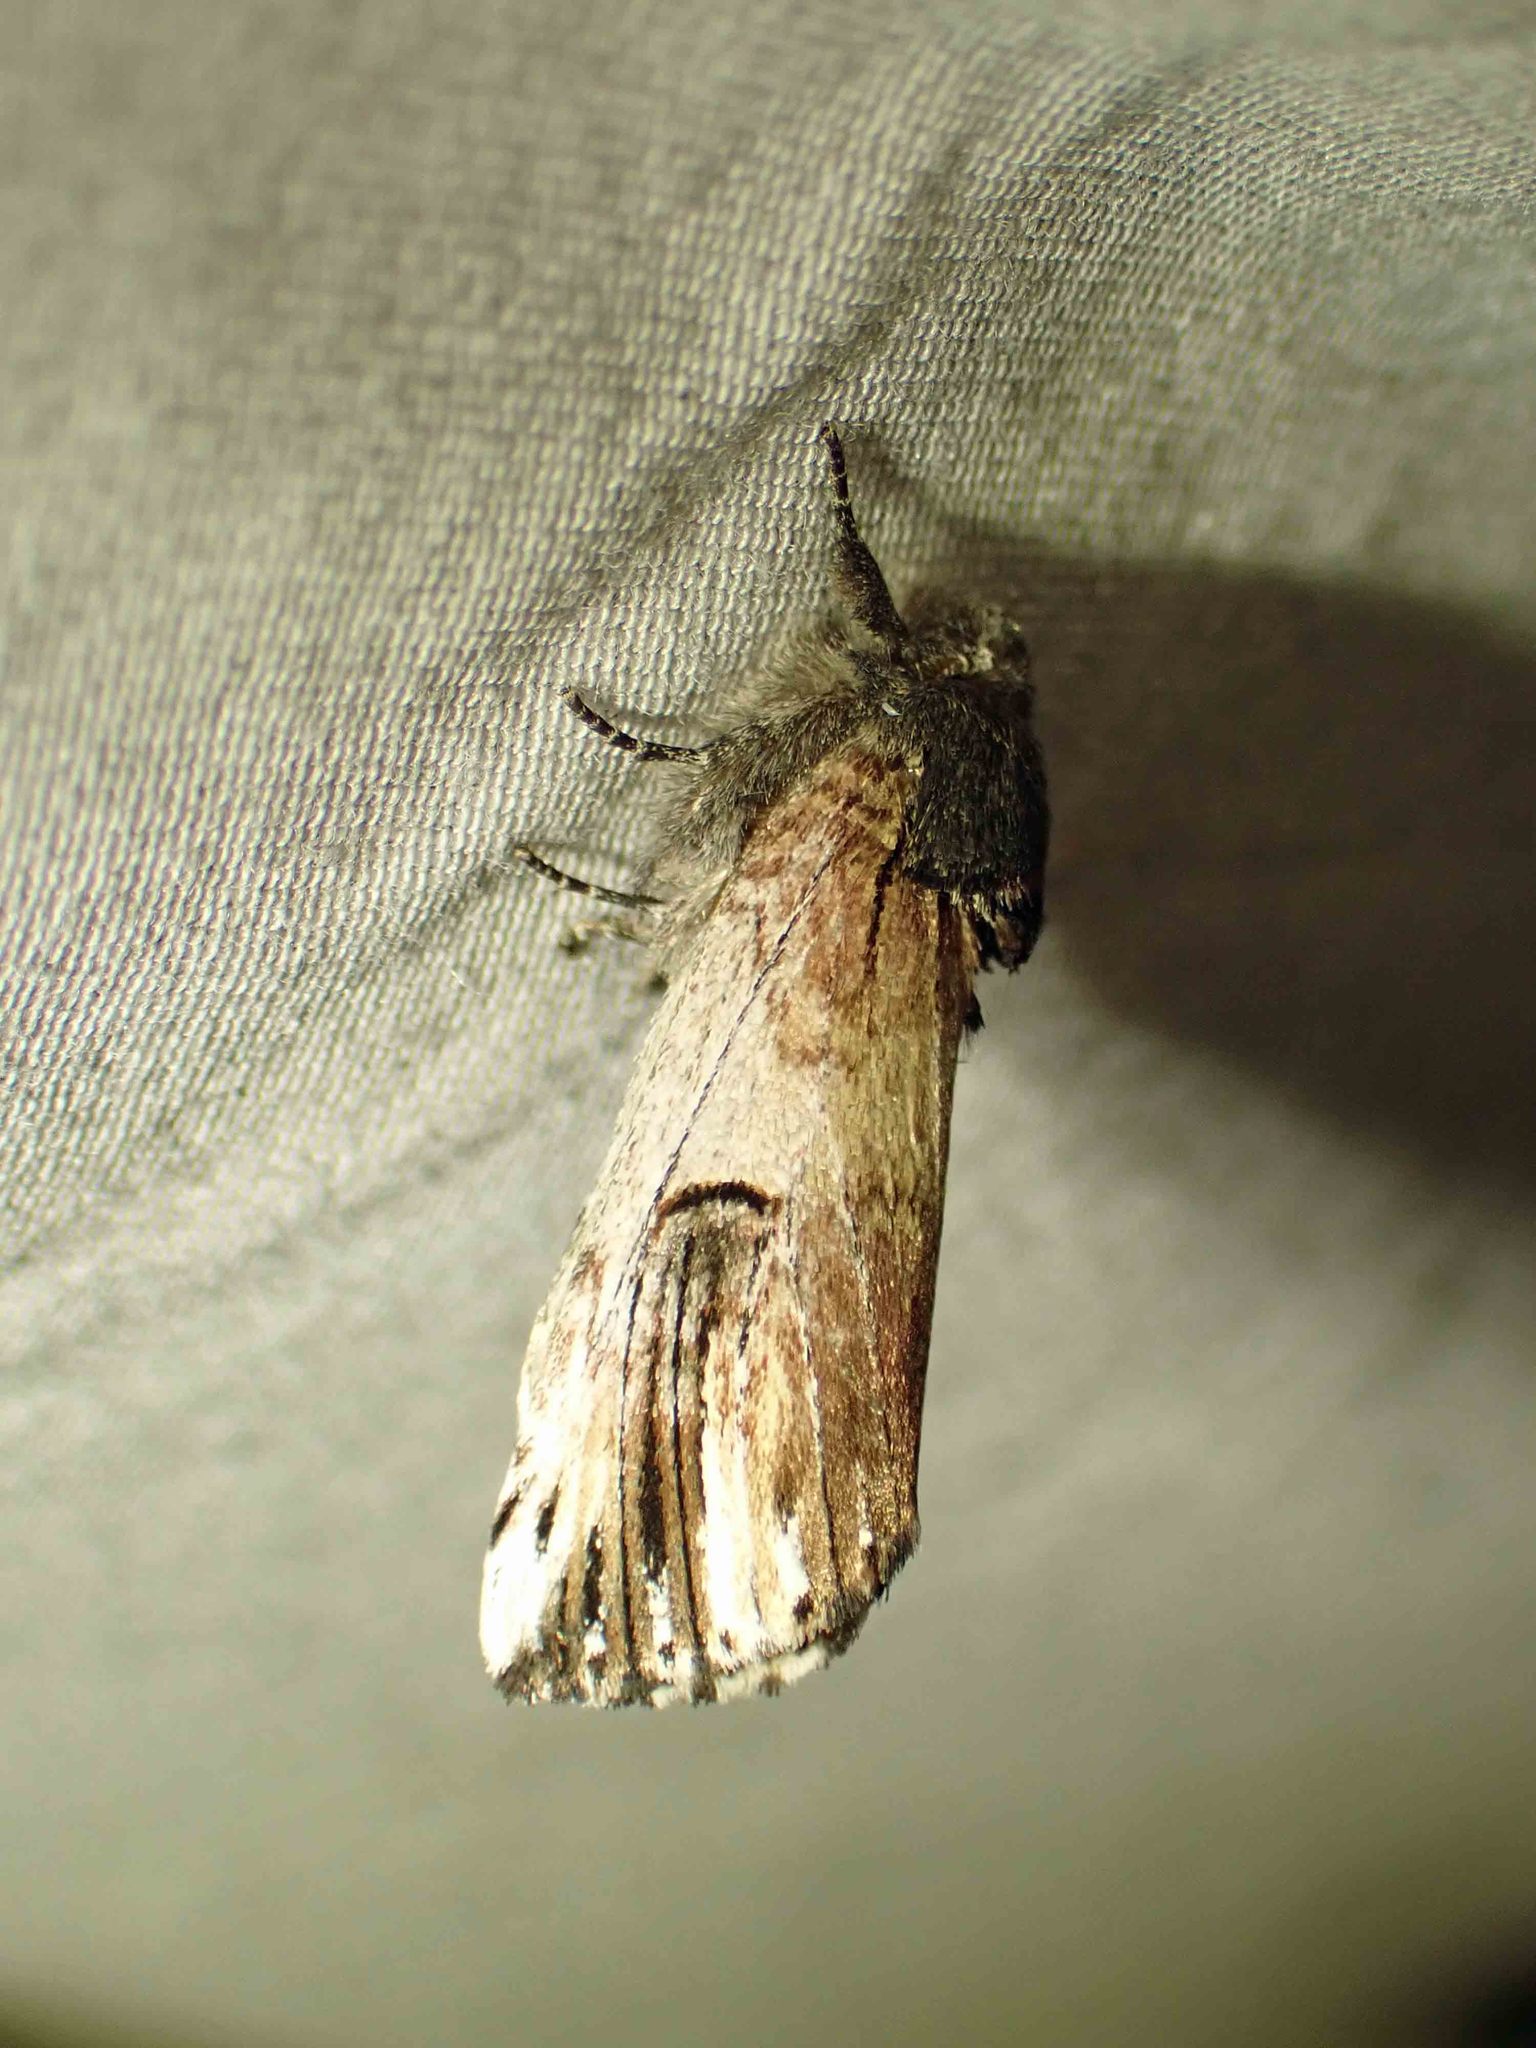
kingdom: Animalia
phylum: Arthropoda
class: Insecta
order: Lepidoptera
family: Notodontidae
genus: Schizura
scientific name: Schizura badia
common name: Chestnut schizura
